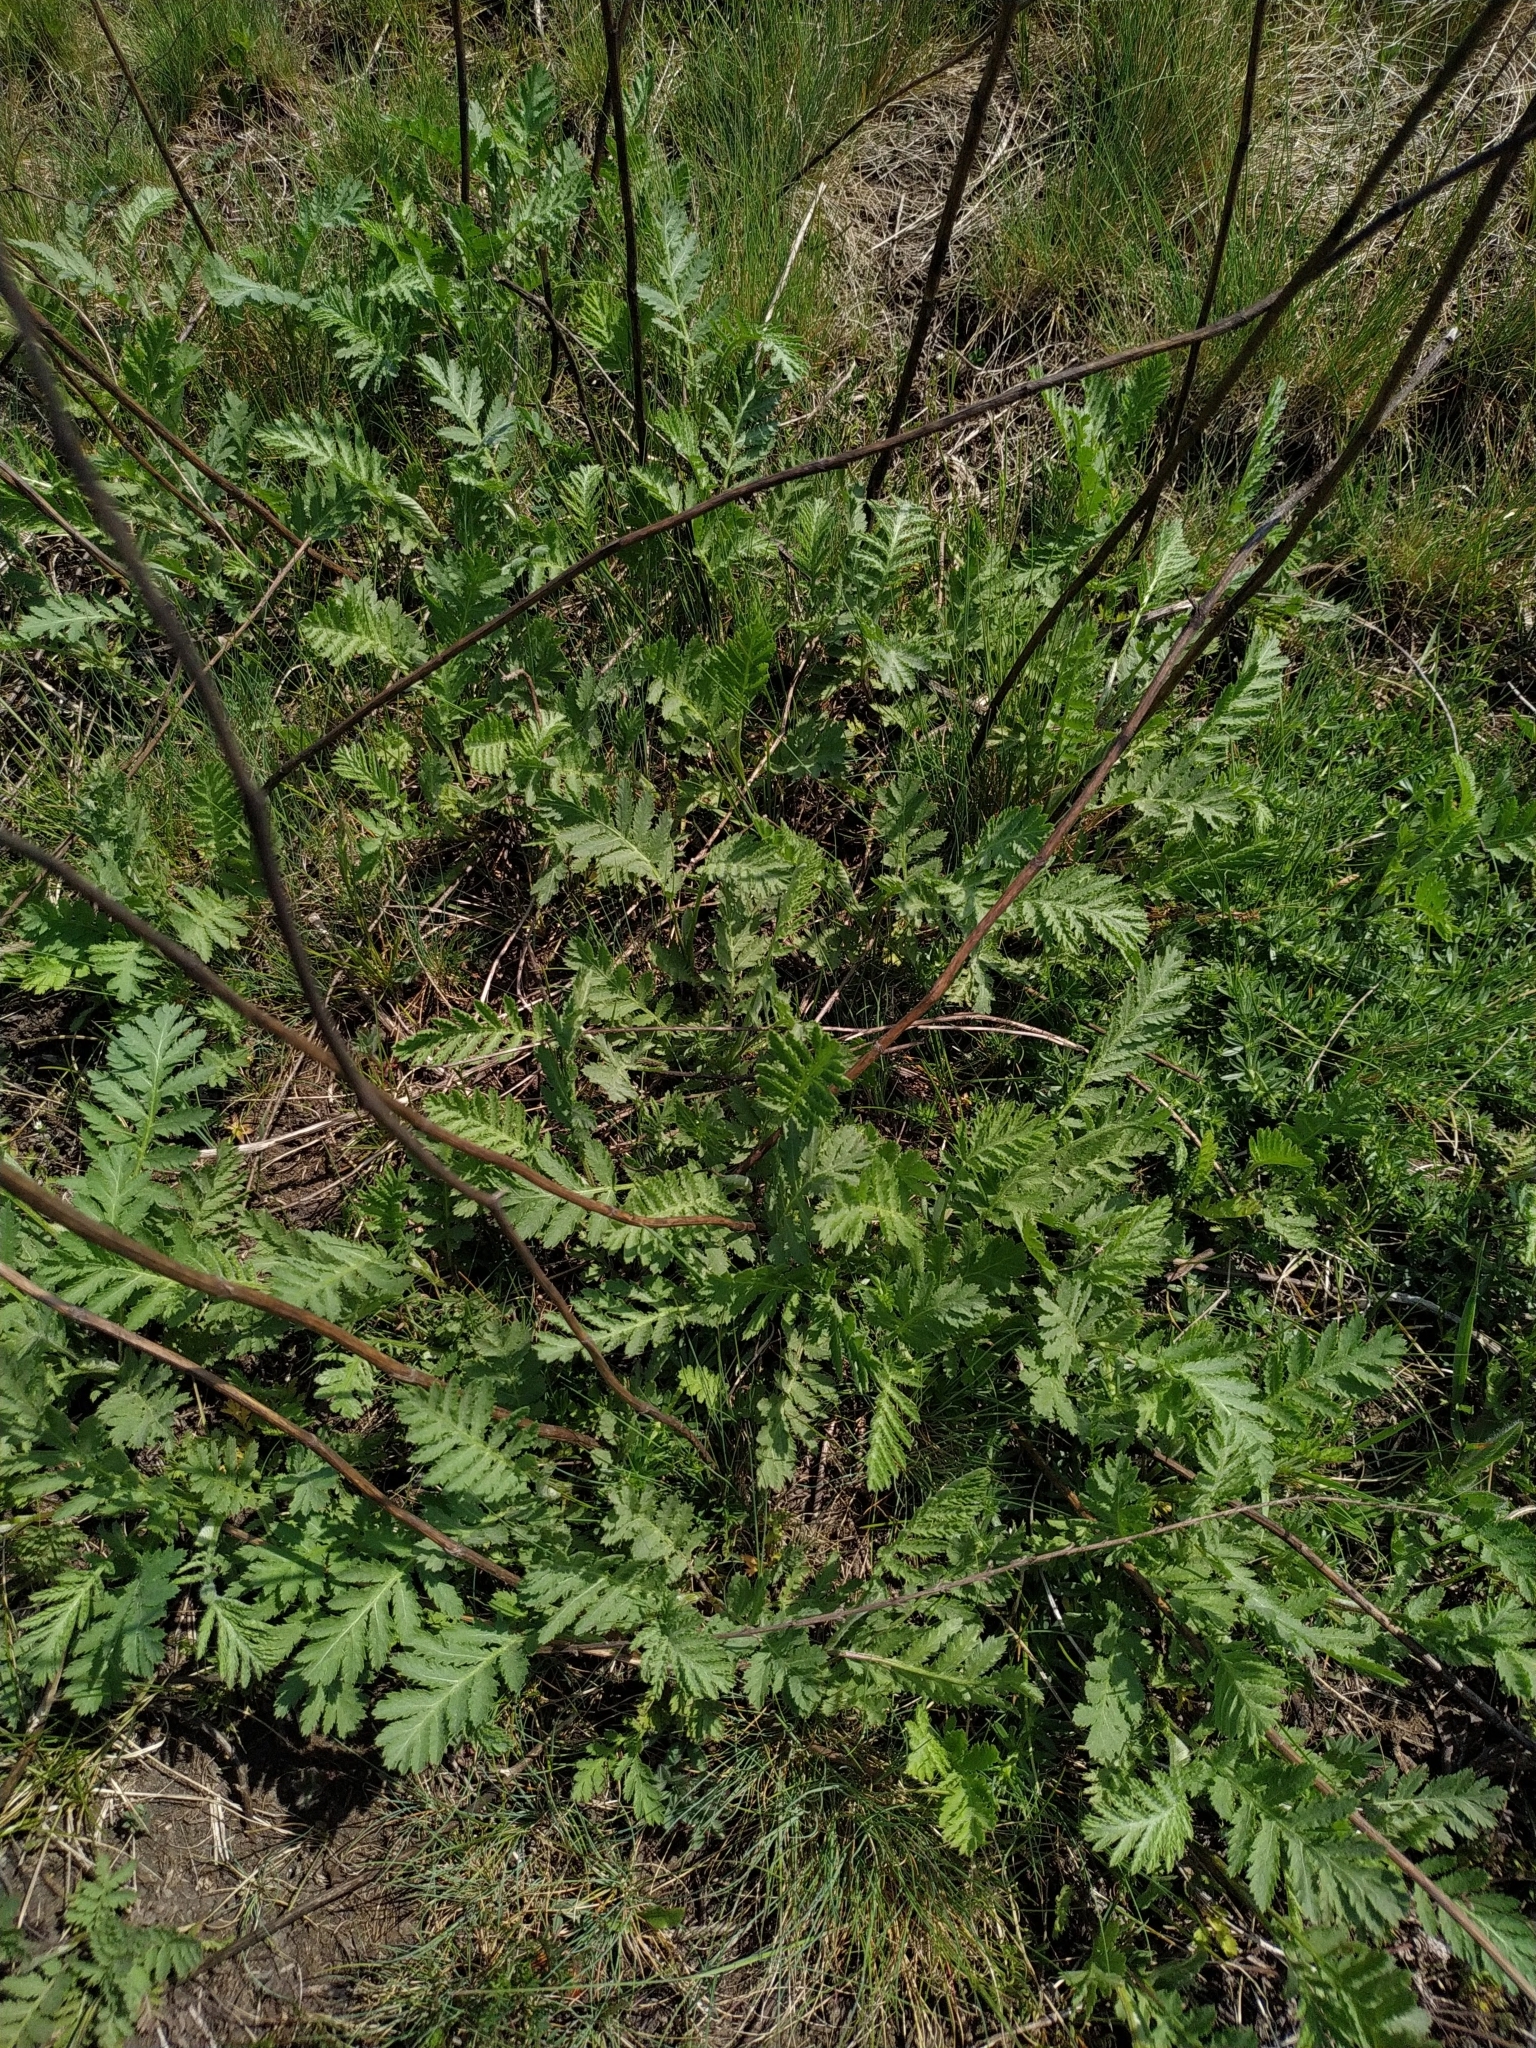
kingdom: Plantae
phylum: Tracheophyta
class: Magnoliopsida
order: Asterales
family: Asteraceae
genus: Tanacetum
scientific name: Tanacetum vulgare
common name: Common tansy
